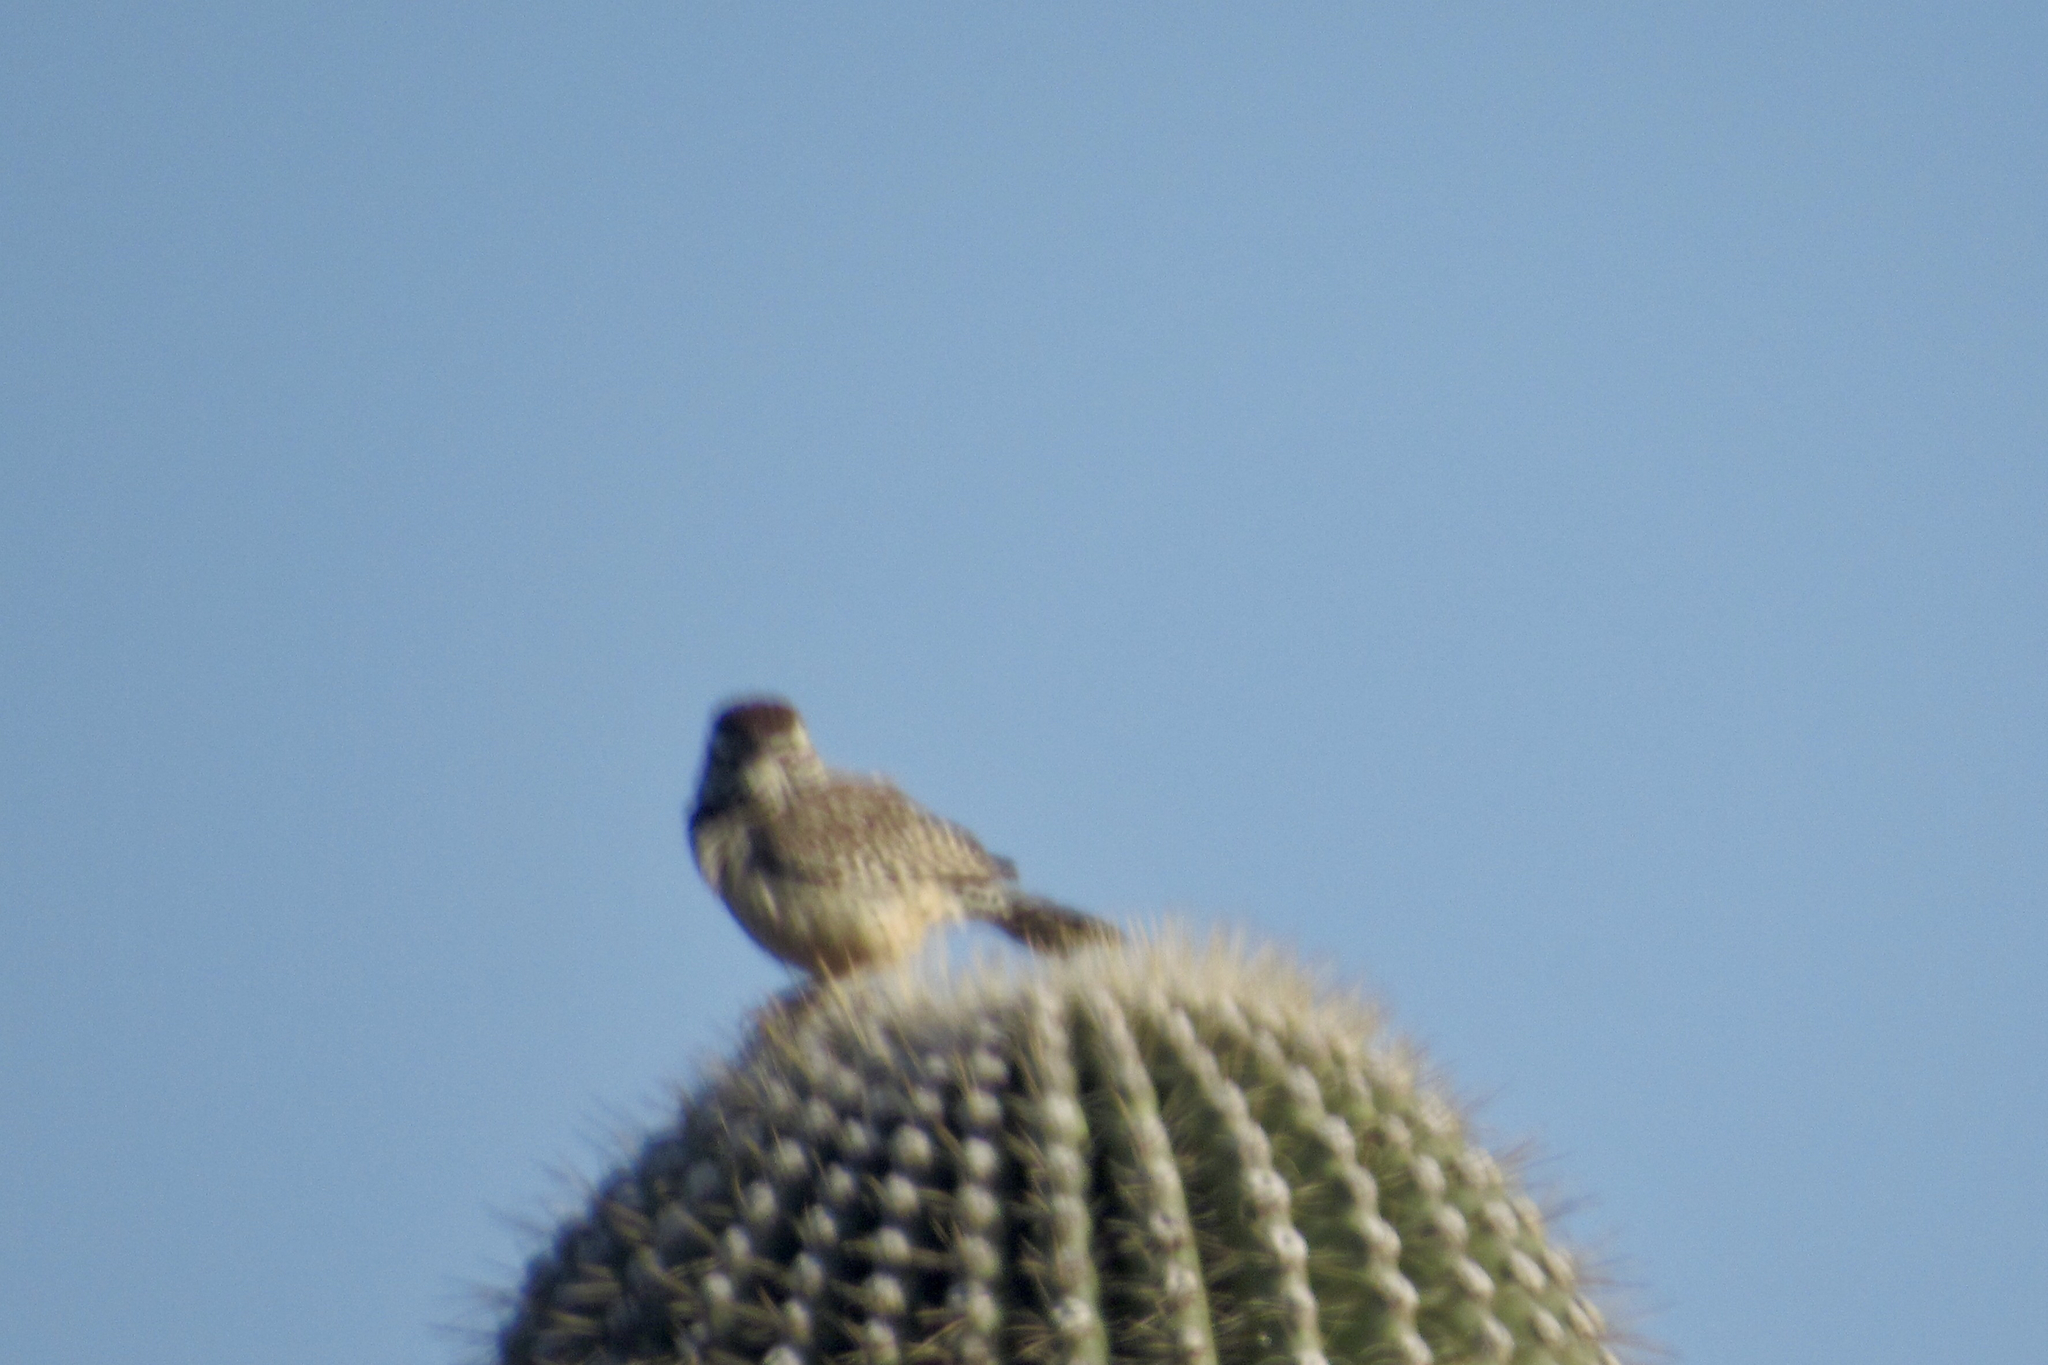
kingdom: Animalia
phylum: Chordata
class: Aves
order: Passeriformes
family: Troglodytidae
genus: Campylorhynchus
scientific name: Campylorhynchus brunneicapillus
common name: Cactus wren
